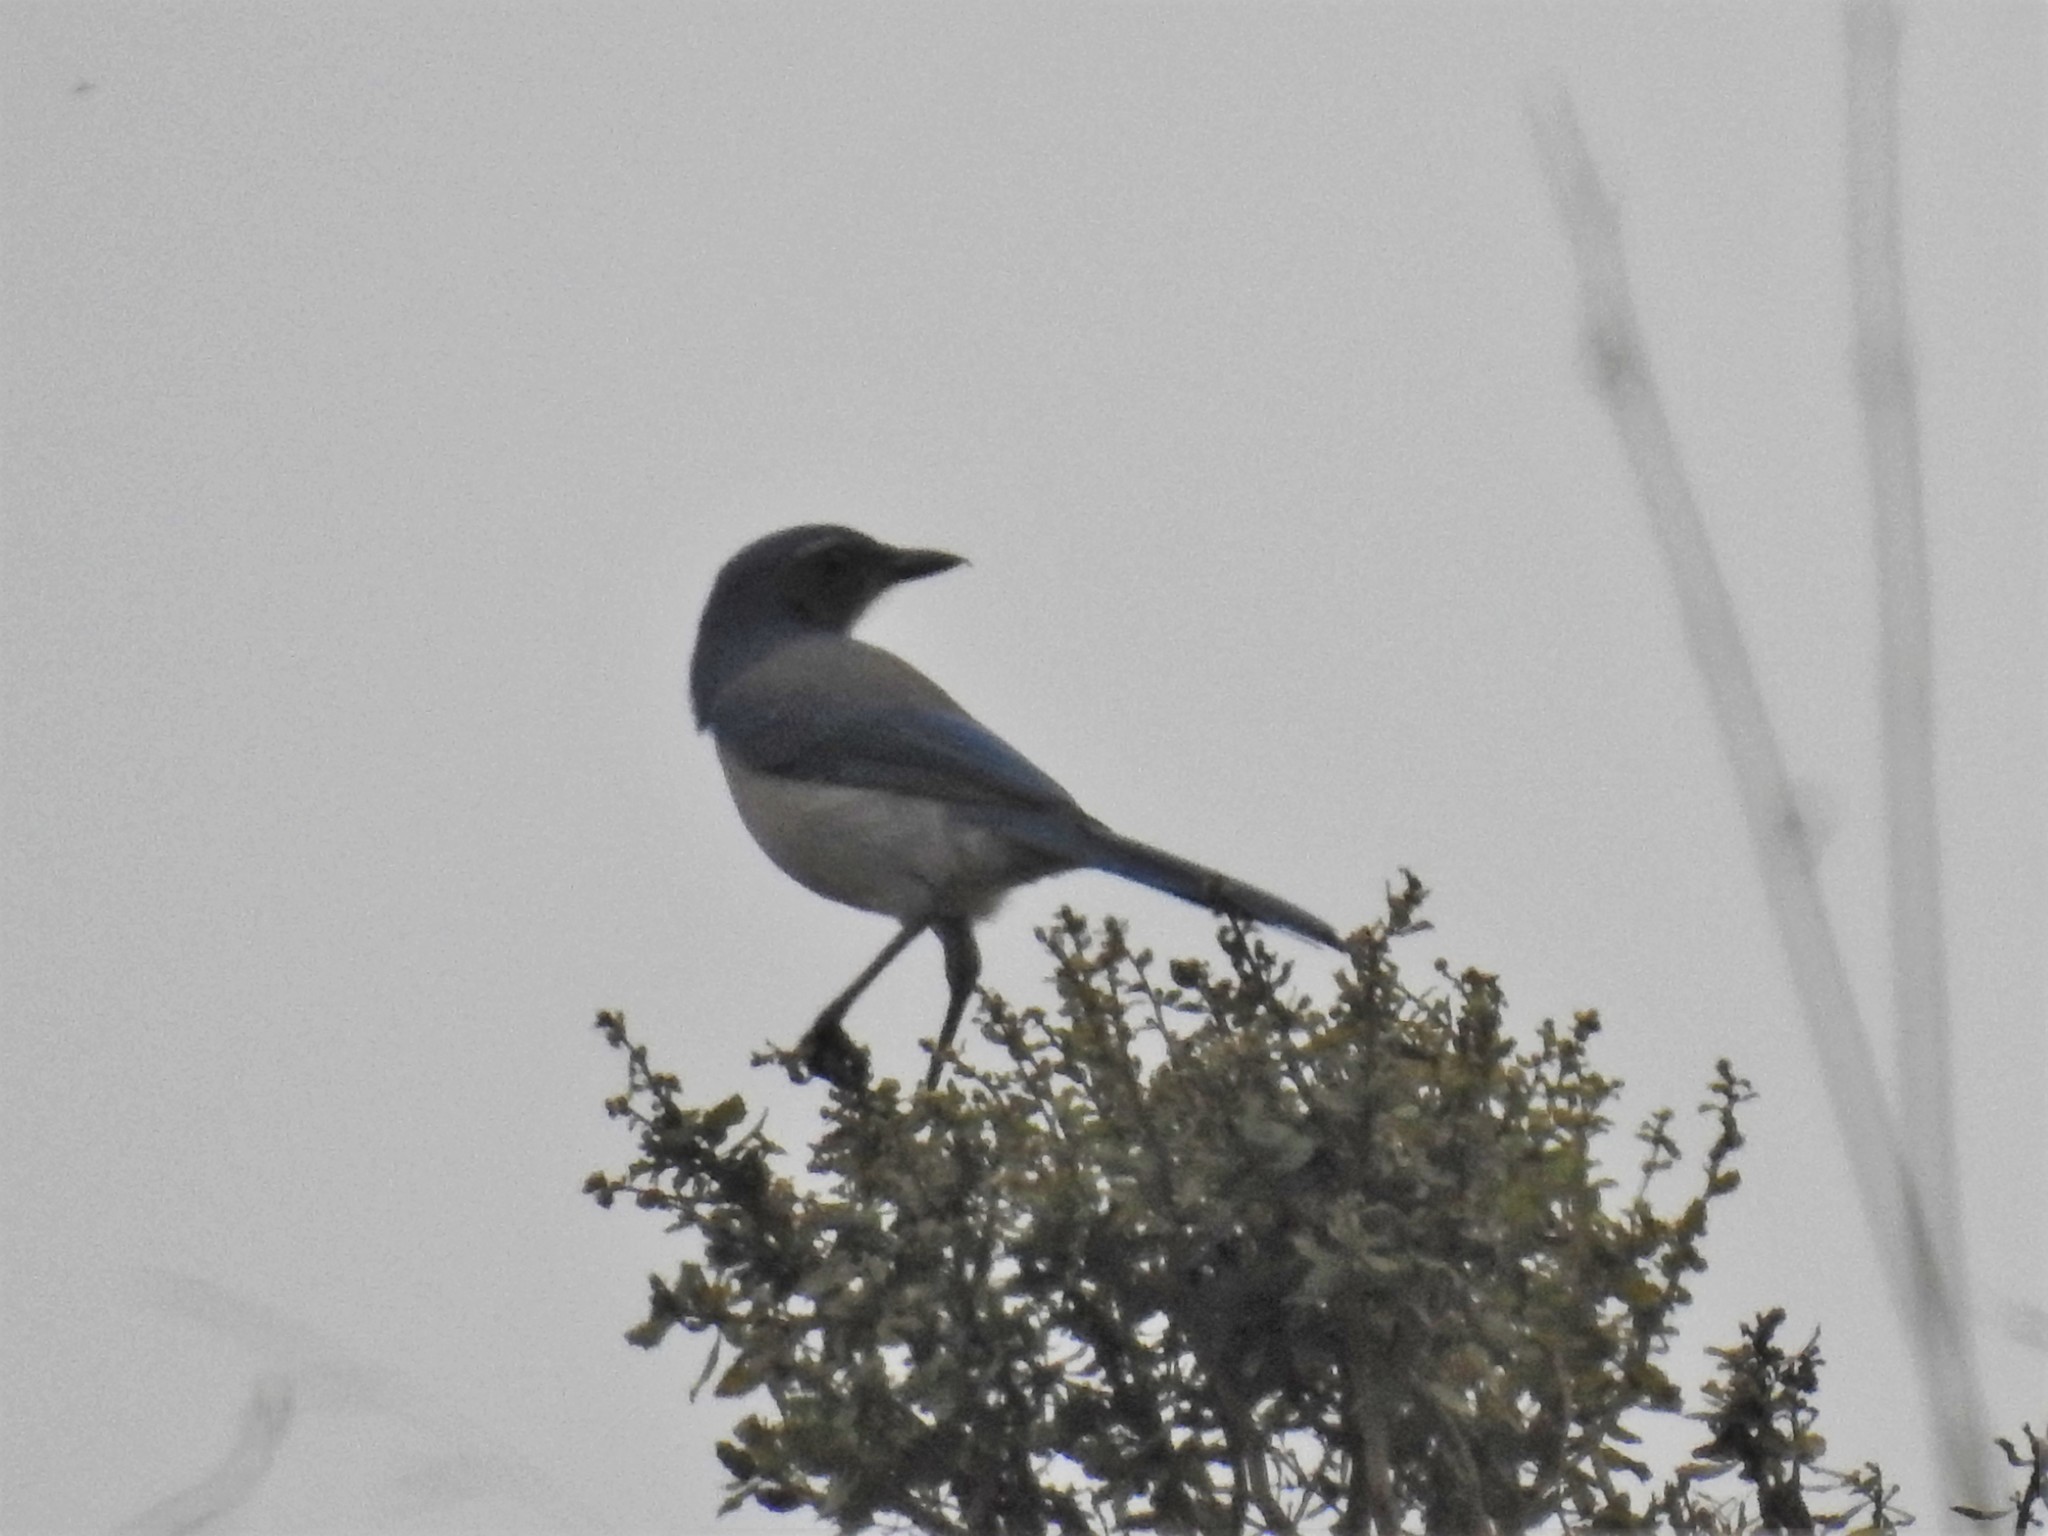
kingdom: Animalia
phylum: Chordata
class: Aves
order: Passeriformes
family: Corvidae
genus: Aphelocoma
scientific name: Aphelocoma californica
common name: California scrub-jay
